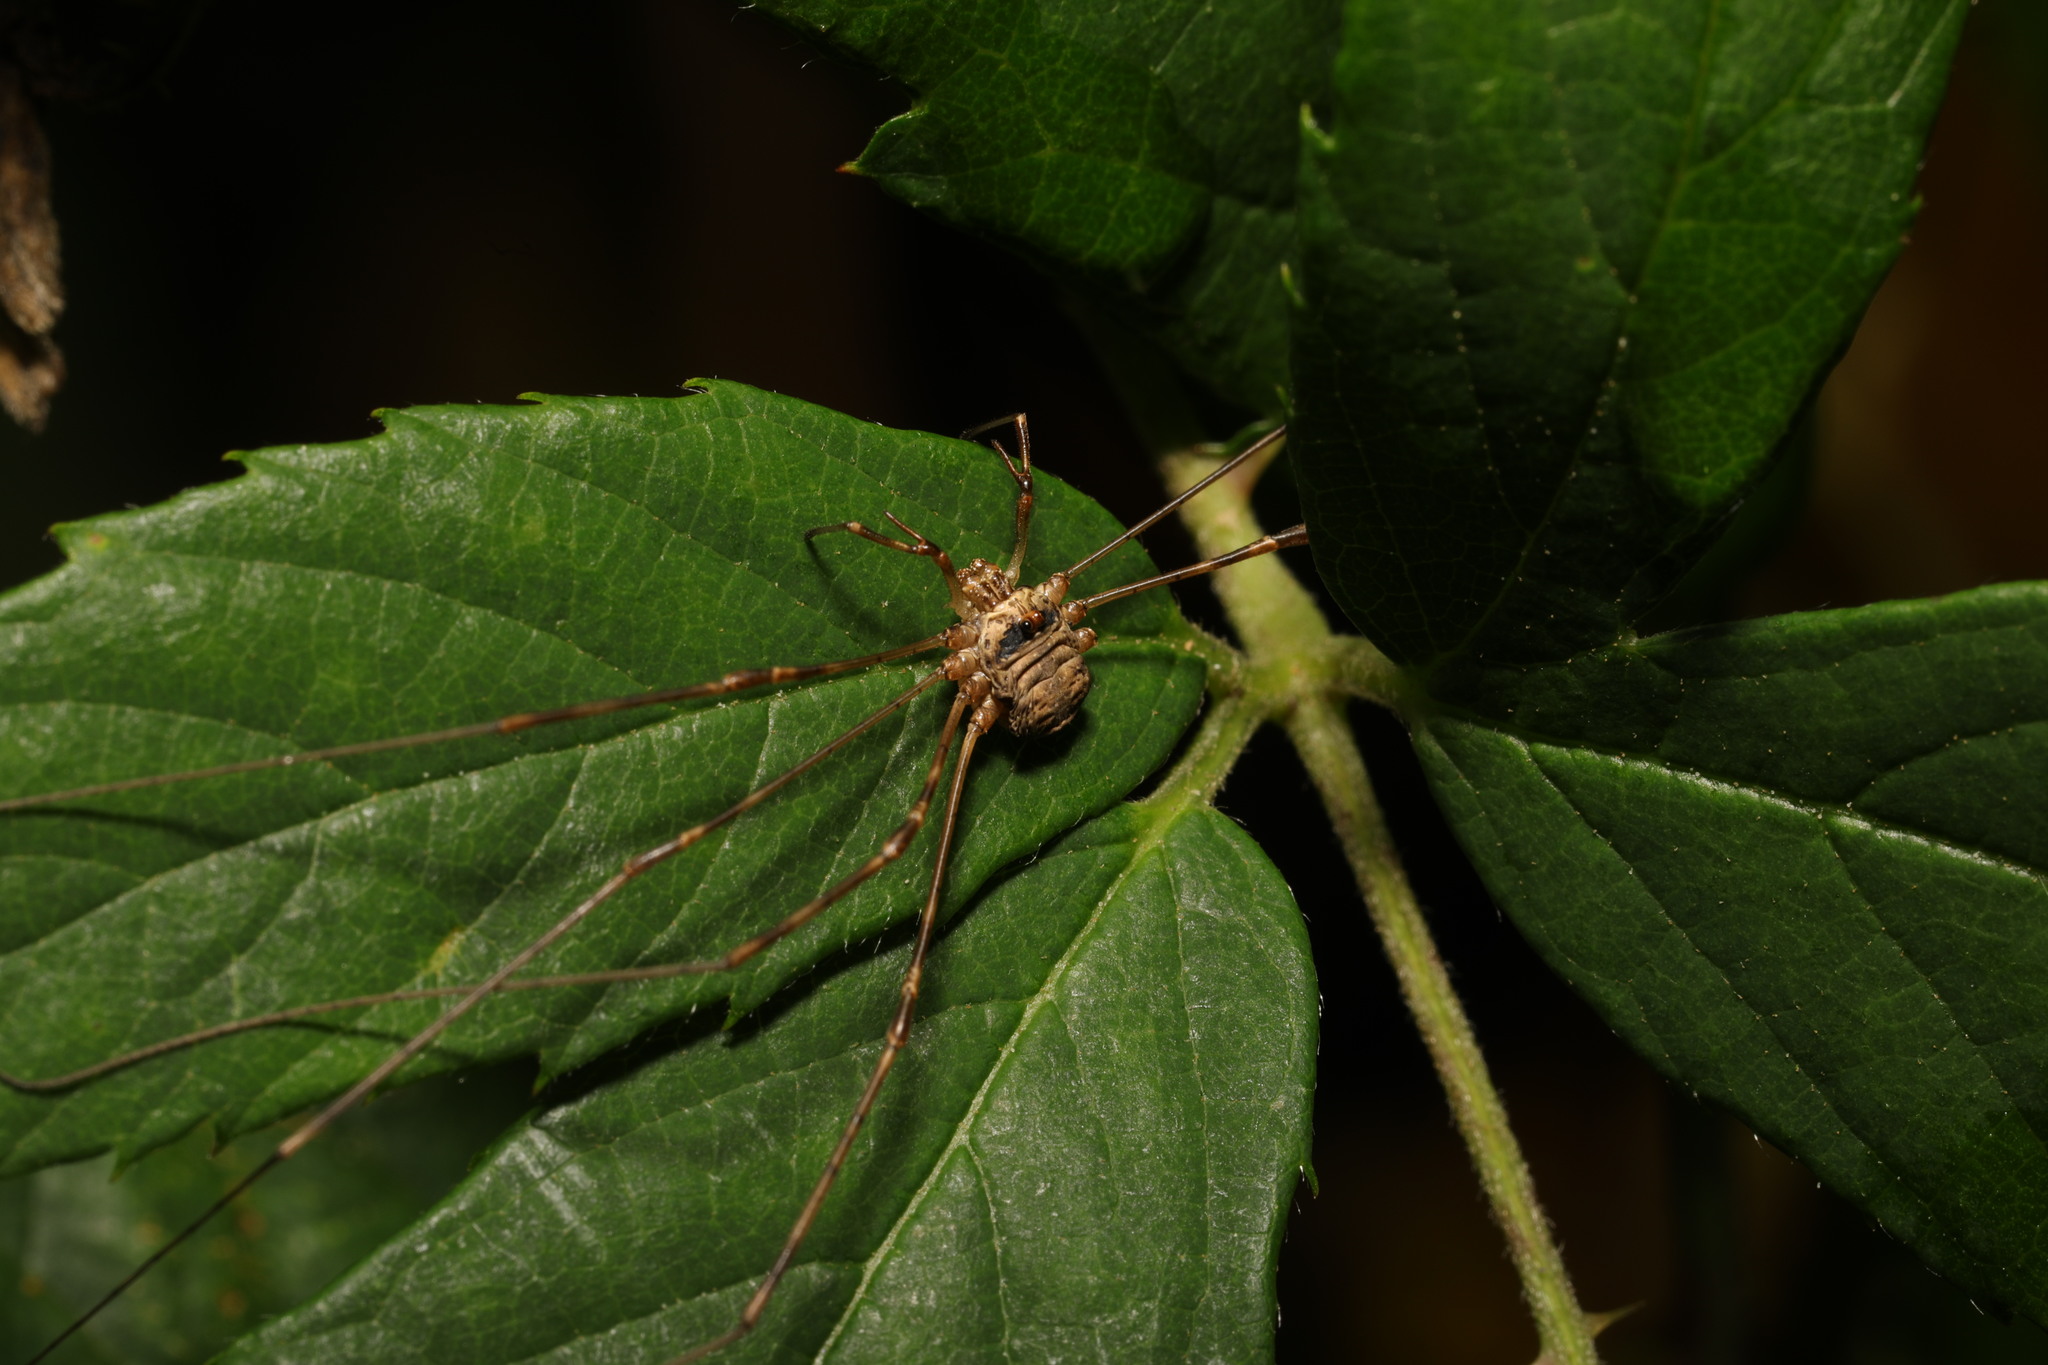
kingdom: Animalia
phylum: Arthropoda
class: Arachnida
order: Opiliones
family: Phalangiidae
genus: Dicranopalpus
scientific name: Dicranopalpus ramosus
